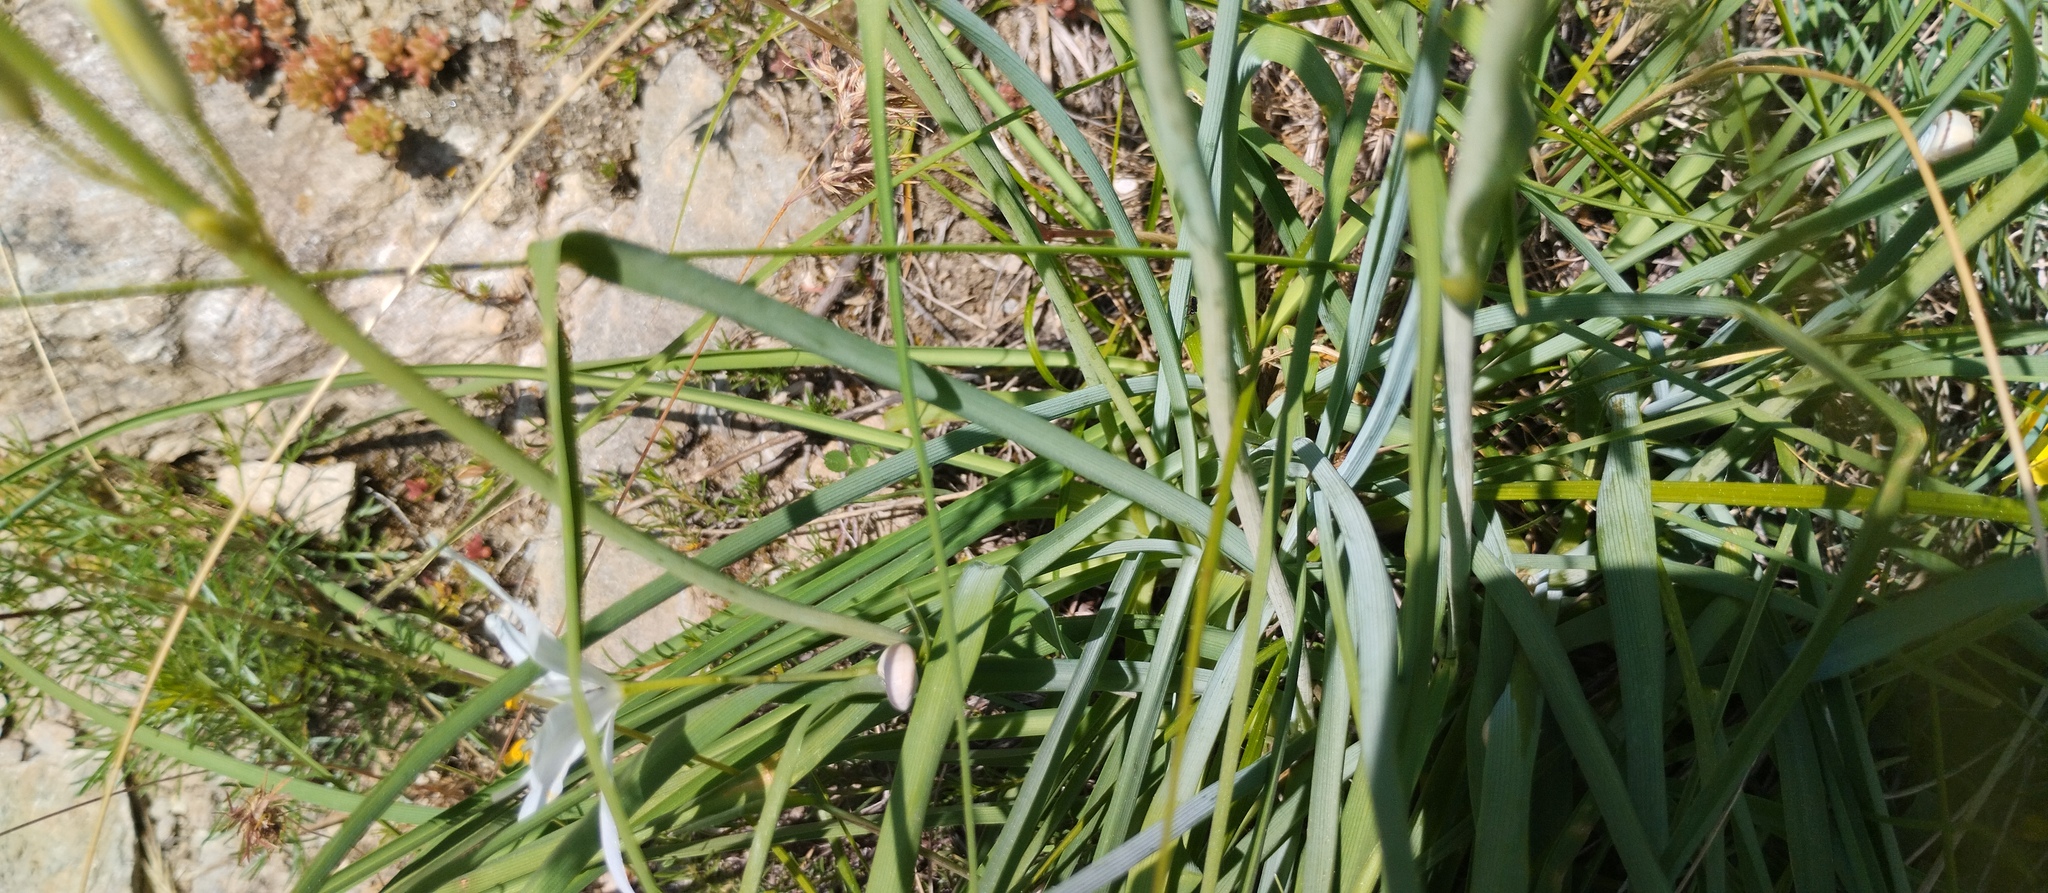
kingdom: Plantae
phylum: Tracheophyta
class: Liliopsida
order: Asparagales
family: Asparagaceae
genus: Anthericum
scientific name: Anthericum liliago
